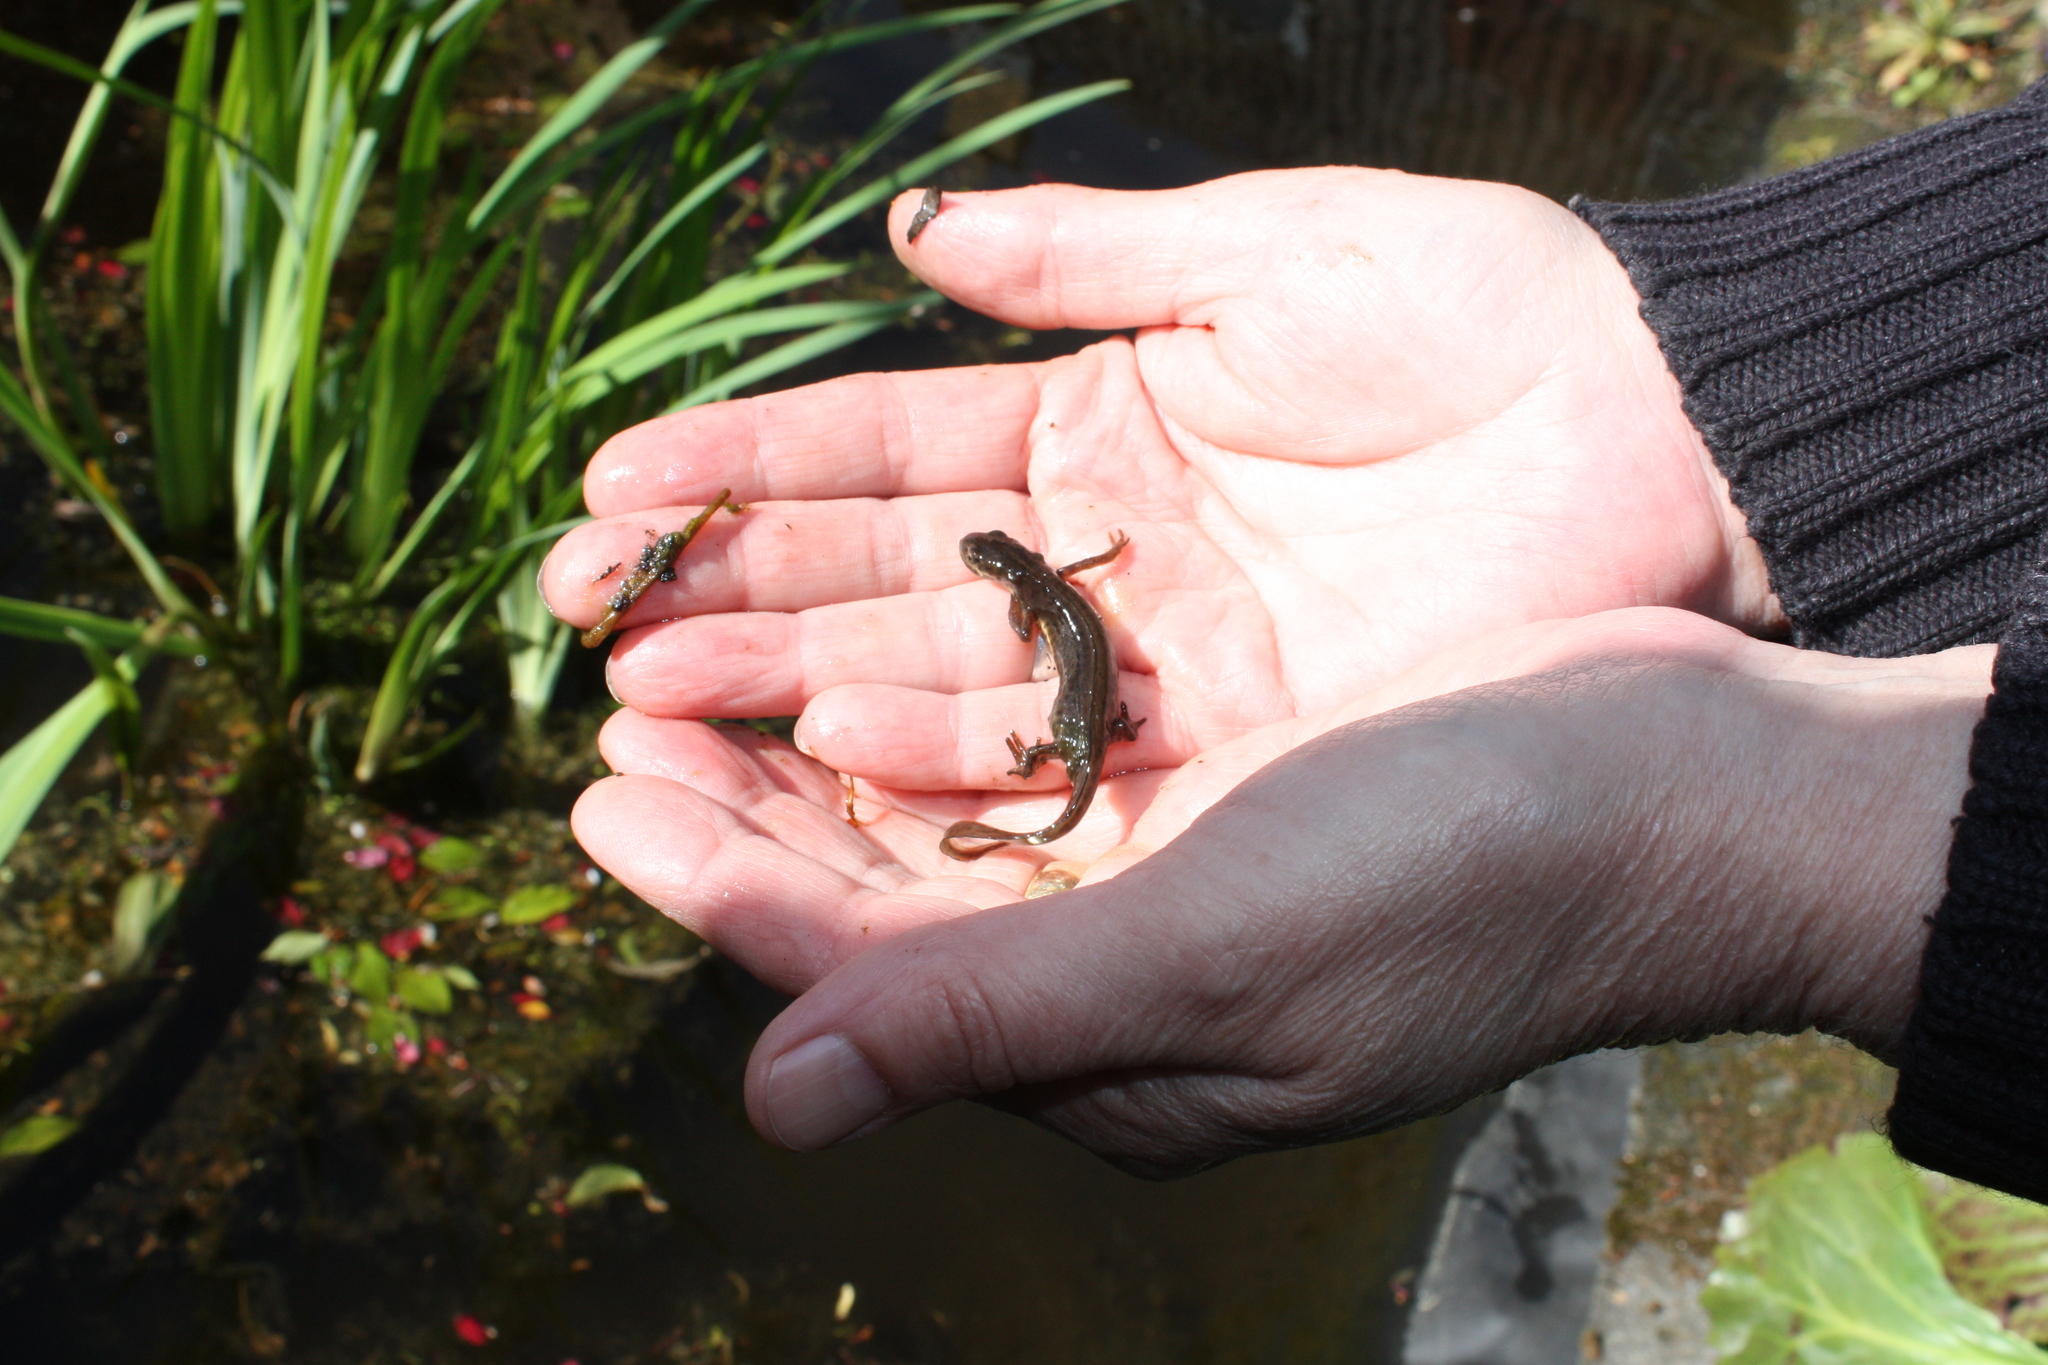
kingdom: Animalia
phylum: Chordata
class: Amphibia
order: Caudata
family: Salamandridae
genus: Lissotriton
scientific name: Lissotriton vulgaris
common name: Smooth newt
